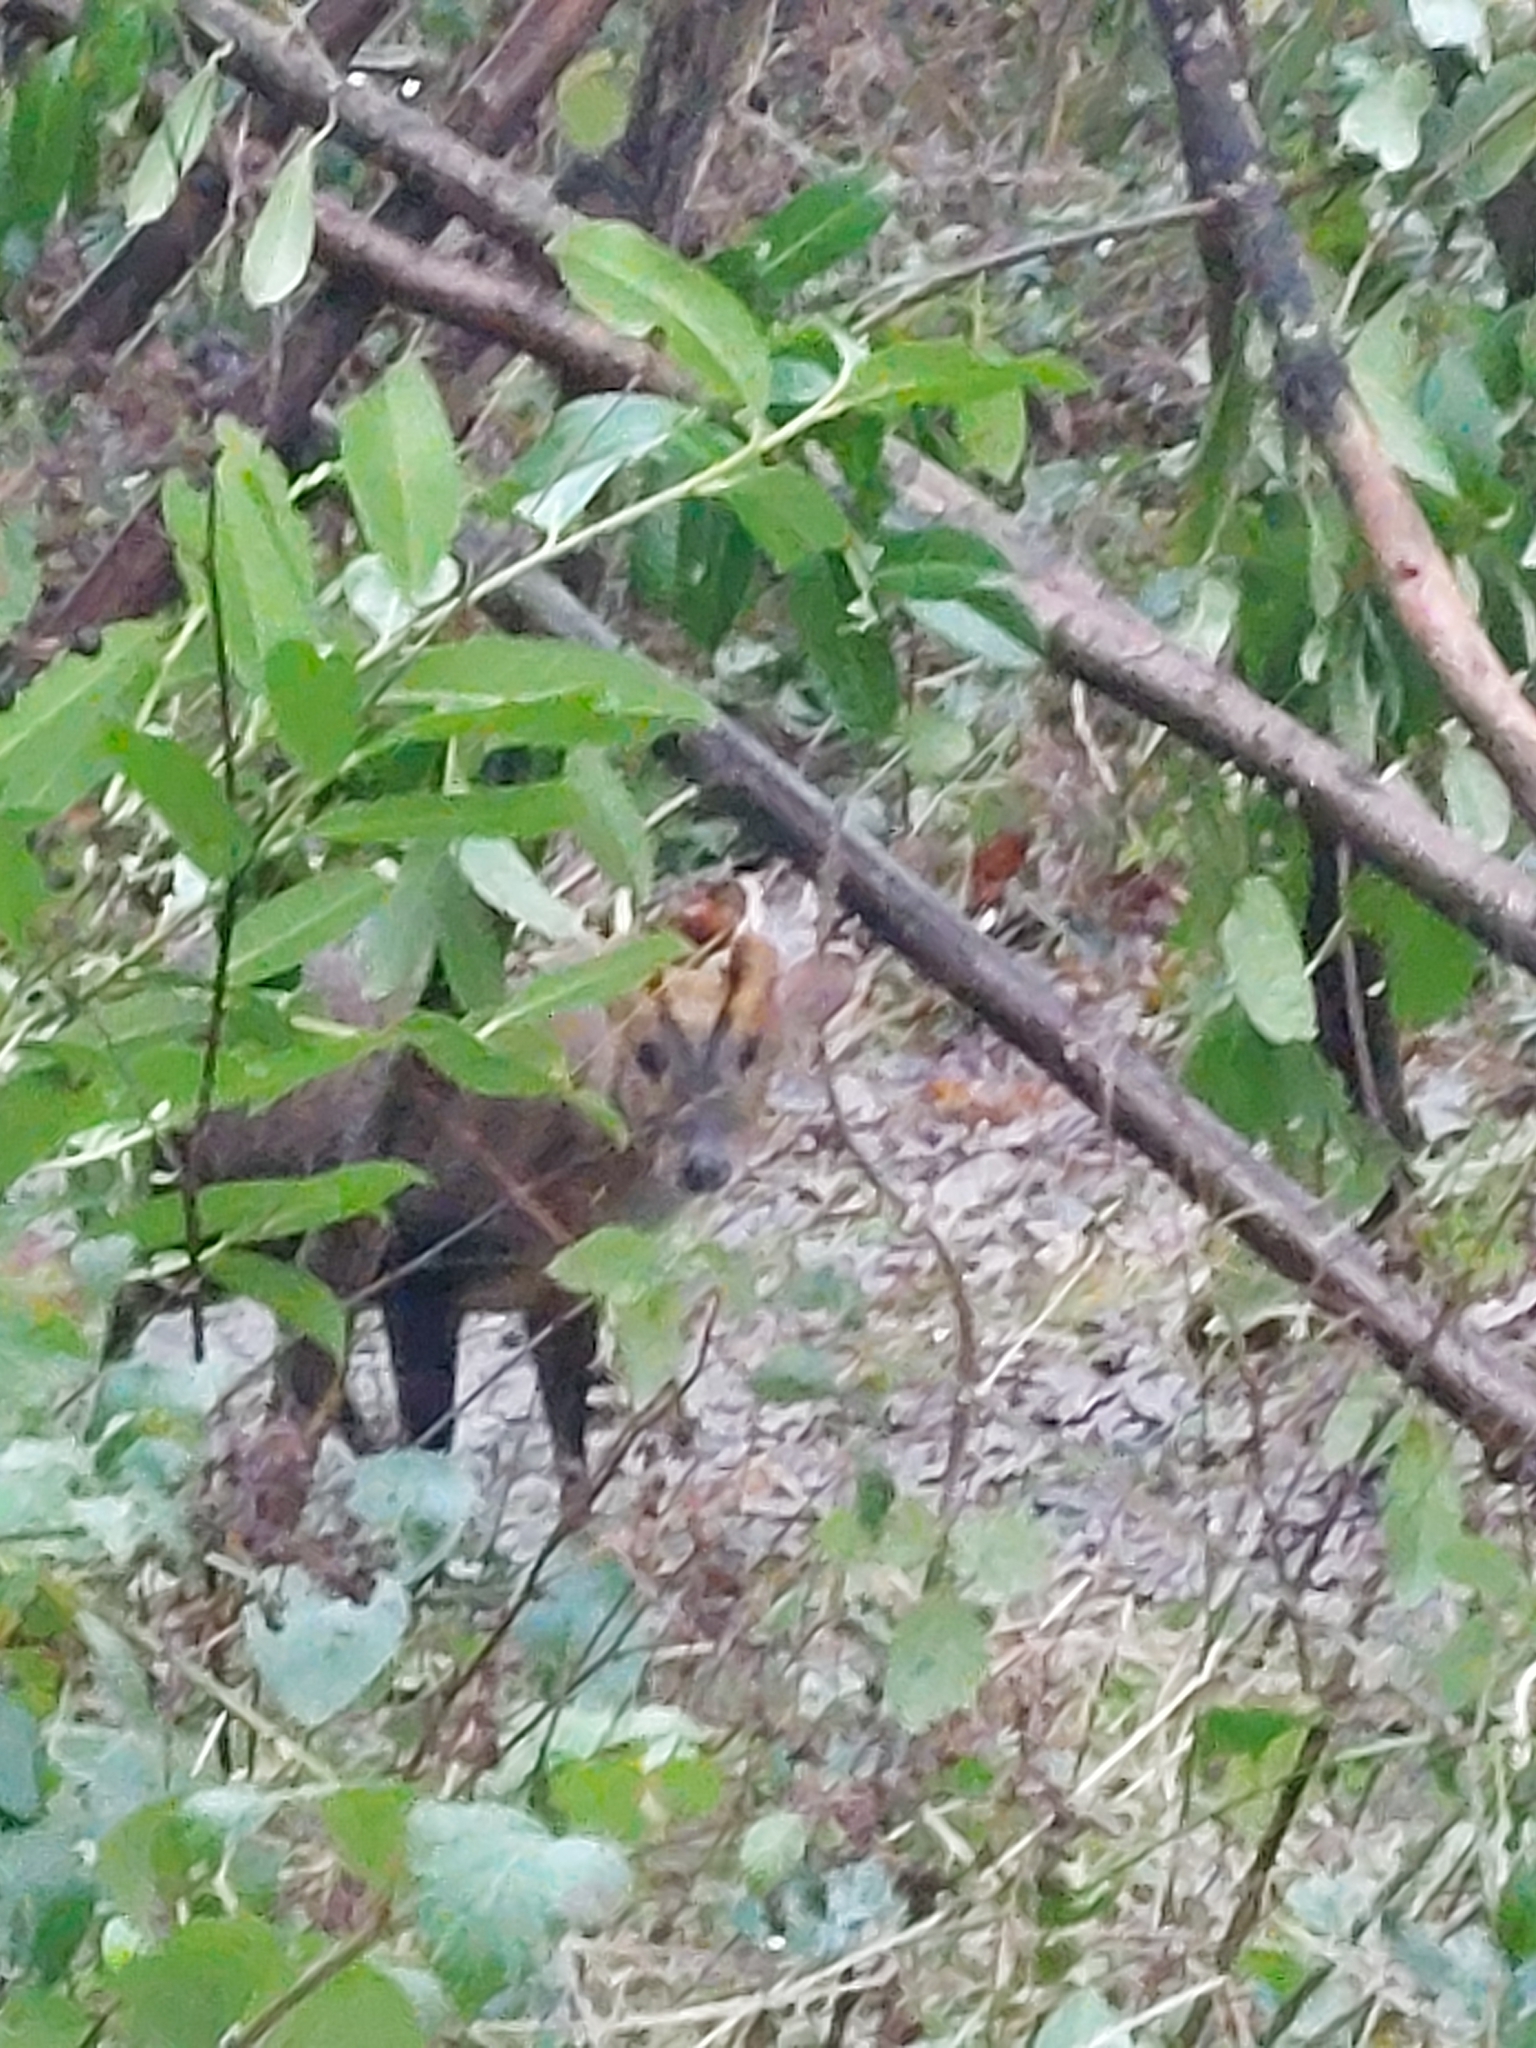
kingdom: Animalia
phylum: Chordata
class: Mammalia
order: Artiodactyla
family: Cervidae
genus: Muntiacus
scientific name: Muntiacus reevesi
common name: Reeves' muntjac
